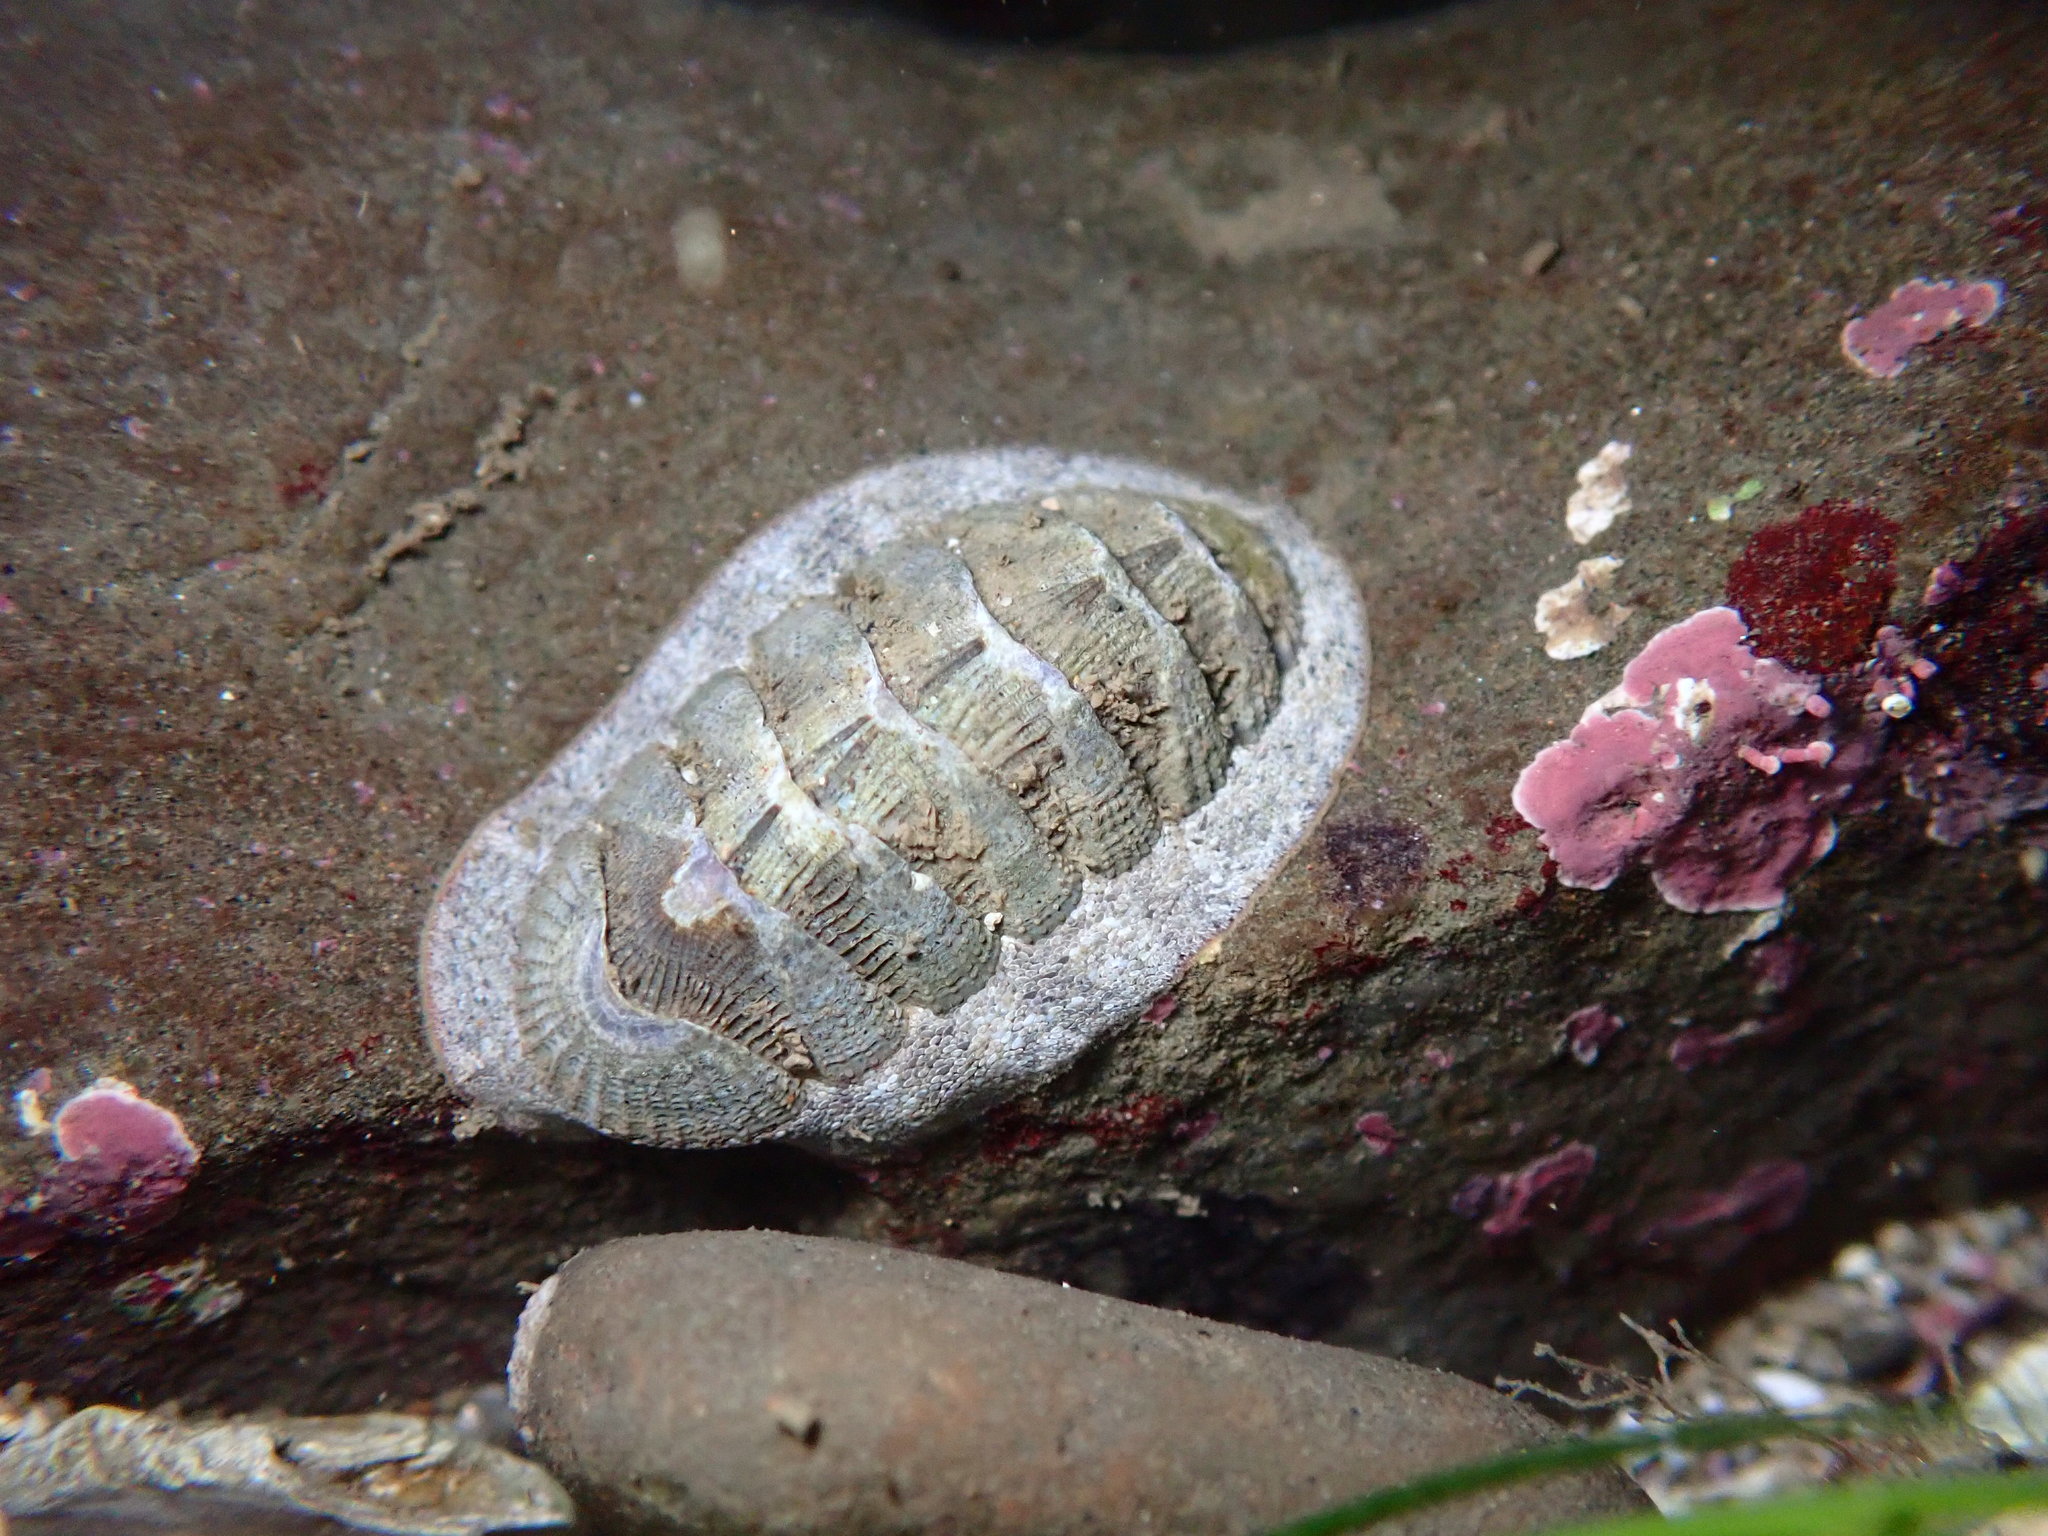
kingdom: Animalia
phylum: Mollusca
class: Polyplacophora
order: Chitonida
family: Ischnochitonidae
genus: Lepidozona
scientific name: Lepidozona cooperi
